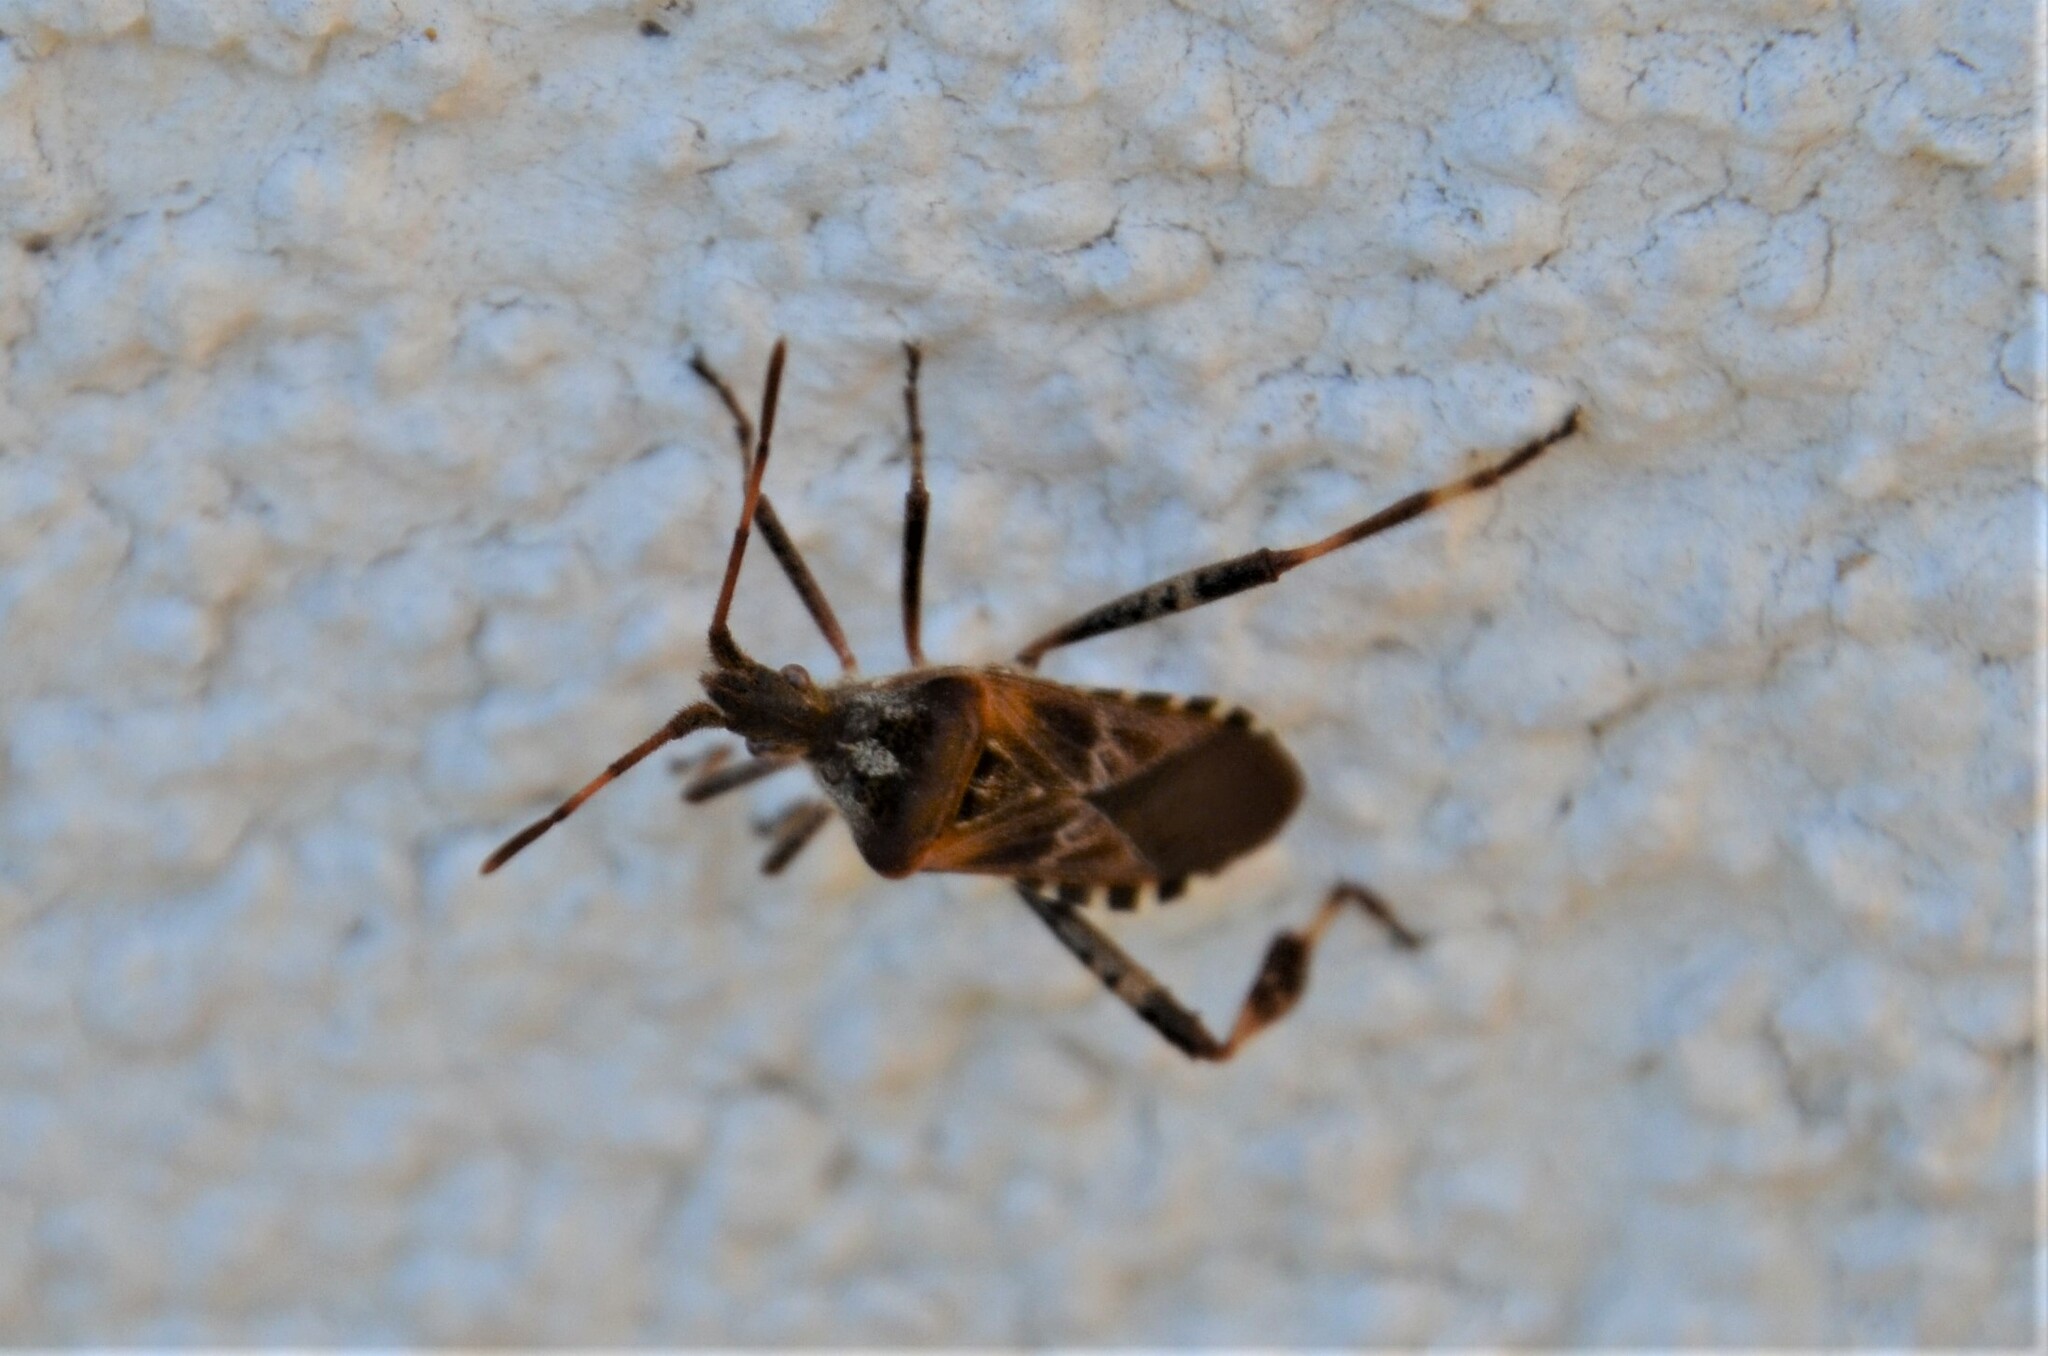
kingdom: Animalia
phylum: Arthropoda
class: Insecta
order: Hemiptera
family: Coreidae
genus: Leptoglossus
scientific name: Leptoglossus occidentalis
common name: Western conifer-seed bug
